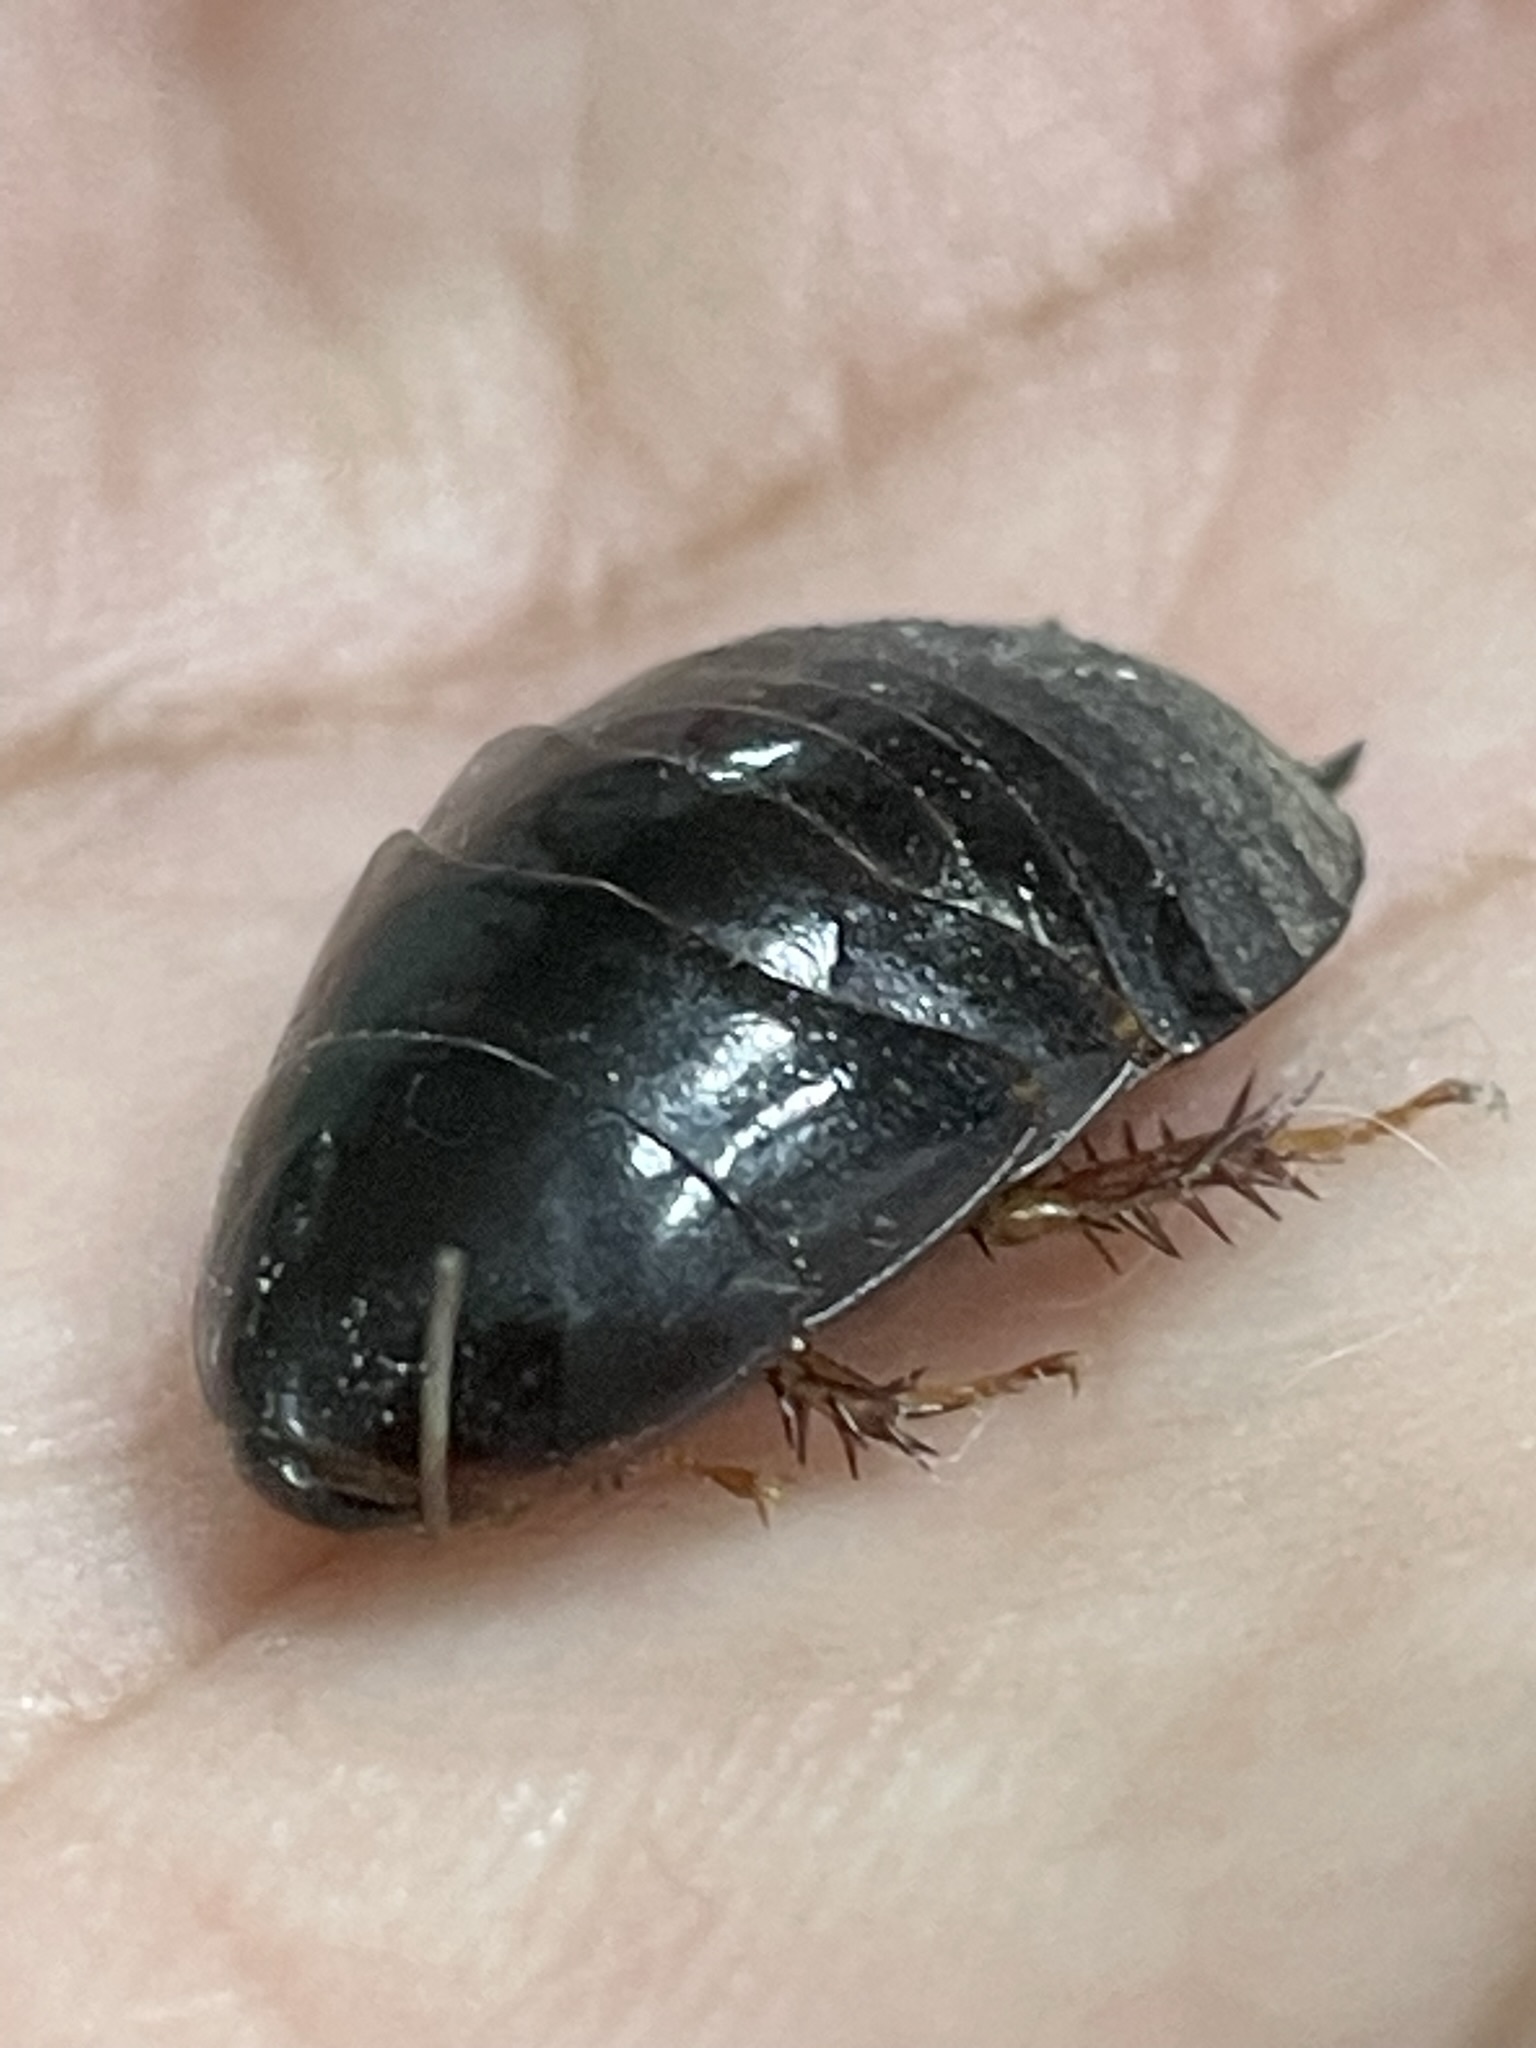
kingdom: Animalia
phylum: Arthropoda
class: Insecta
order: Blattodea
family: Blaberidae
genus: Pycnoscelus
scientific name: Pycnoscelus surinamensis
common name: Surinam cockroach
